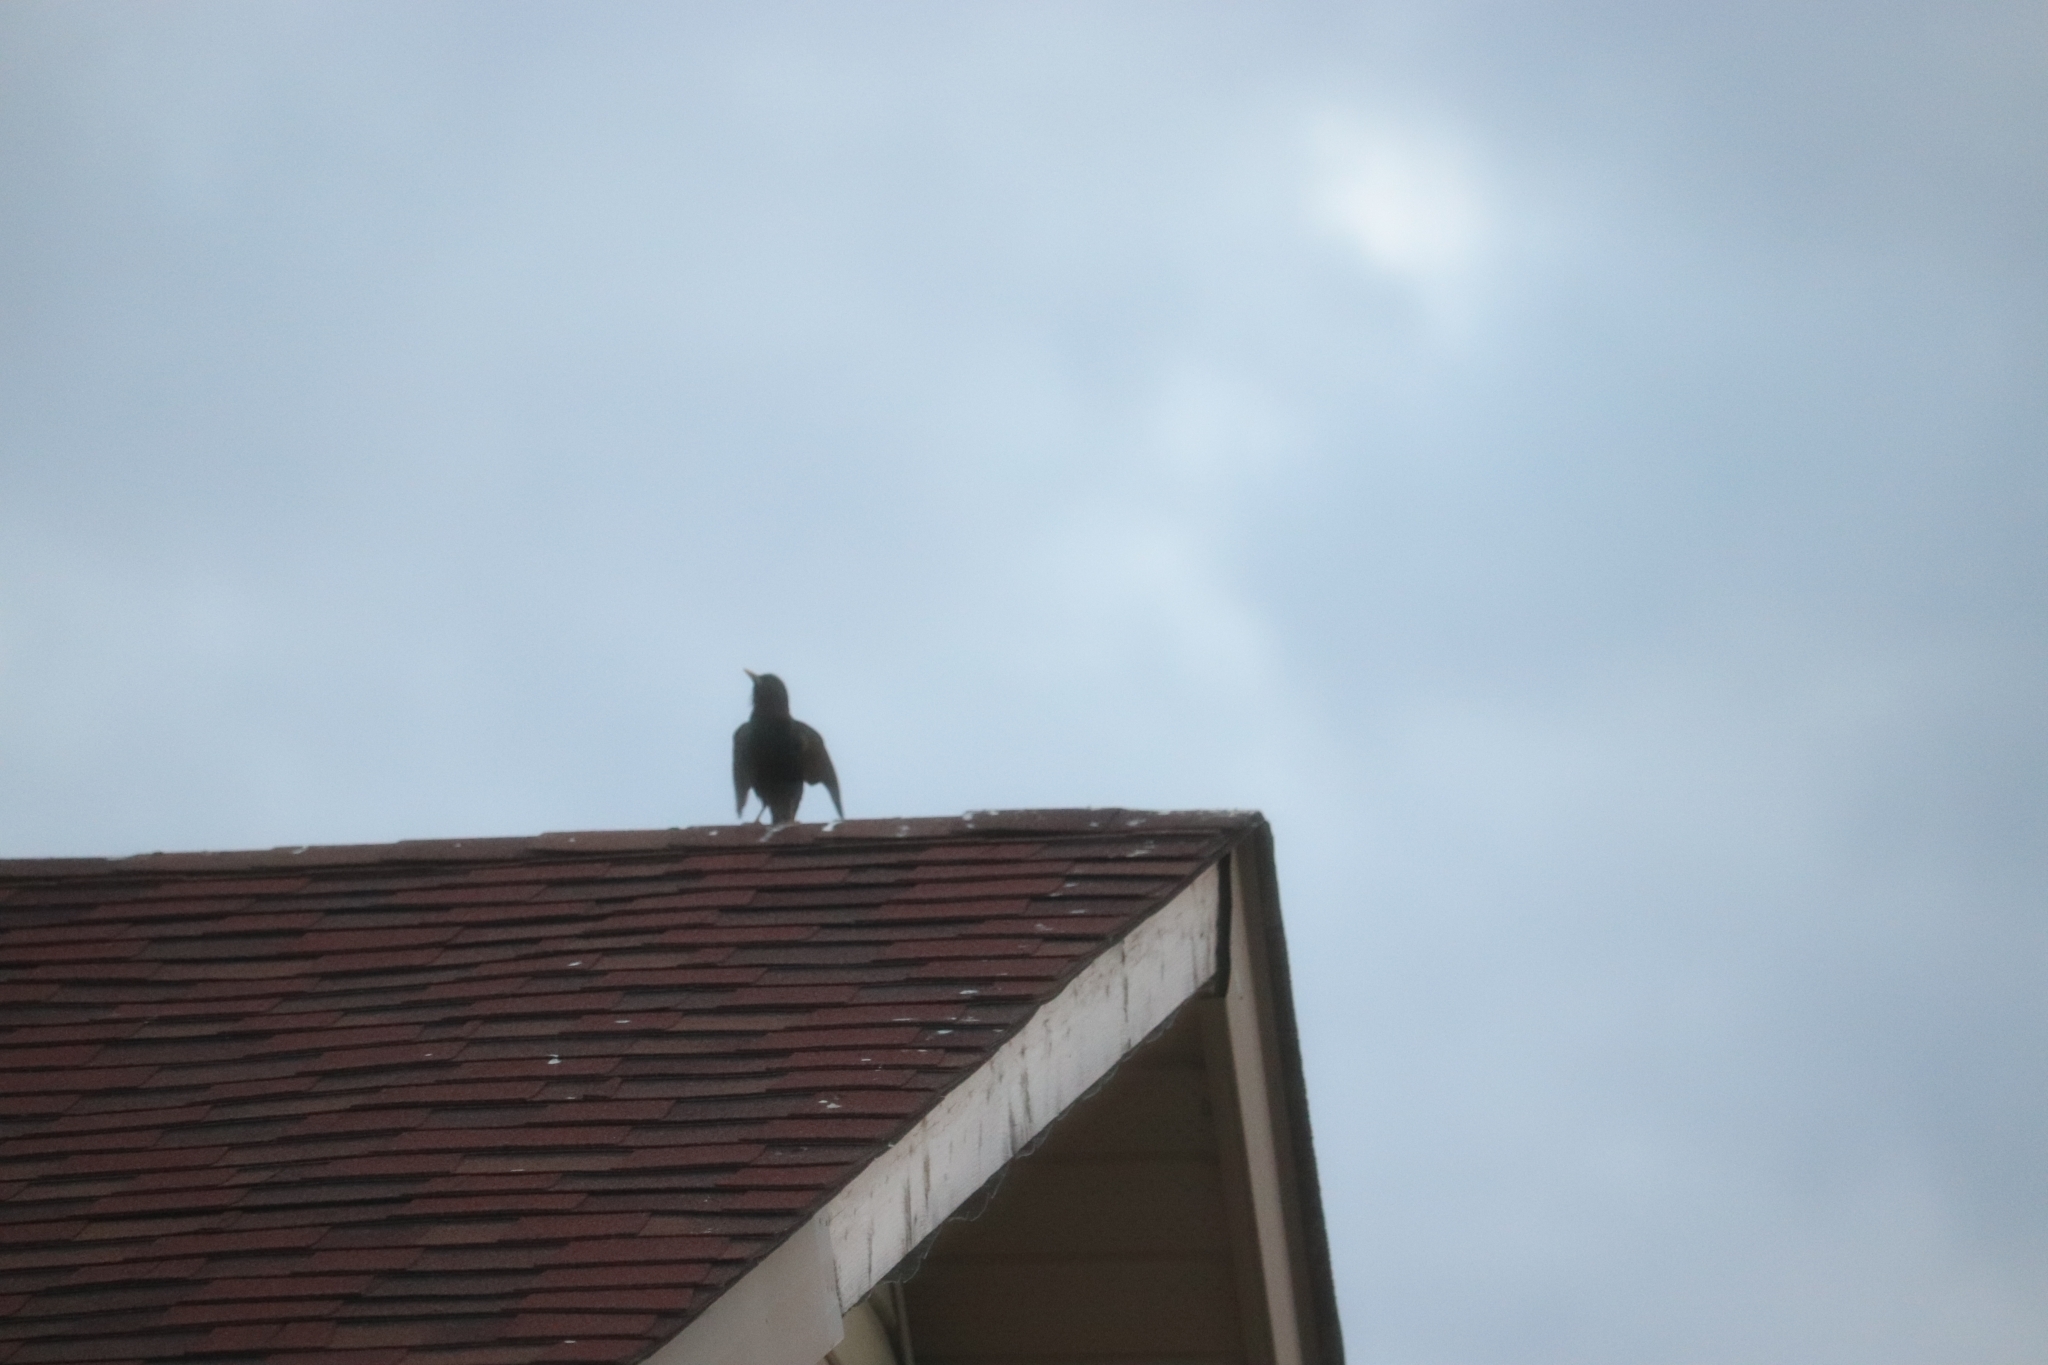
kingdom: Animalia
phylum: Chordata
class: Aves
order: Passeriformes
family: Sturnidae
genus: Sturnus
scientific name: Sturnus vulgaris
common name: Common starling
